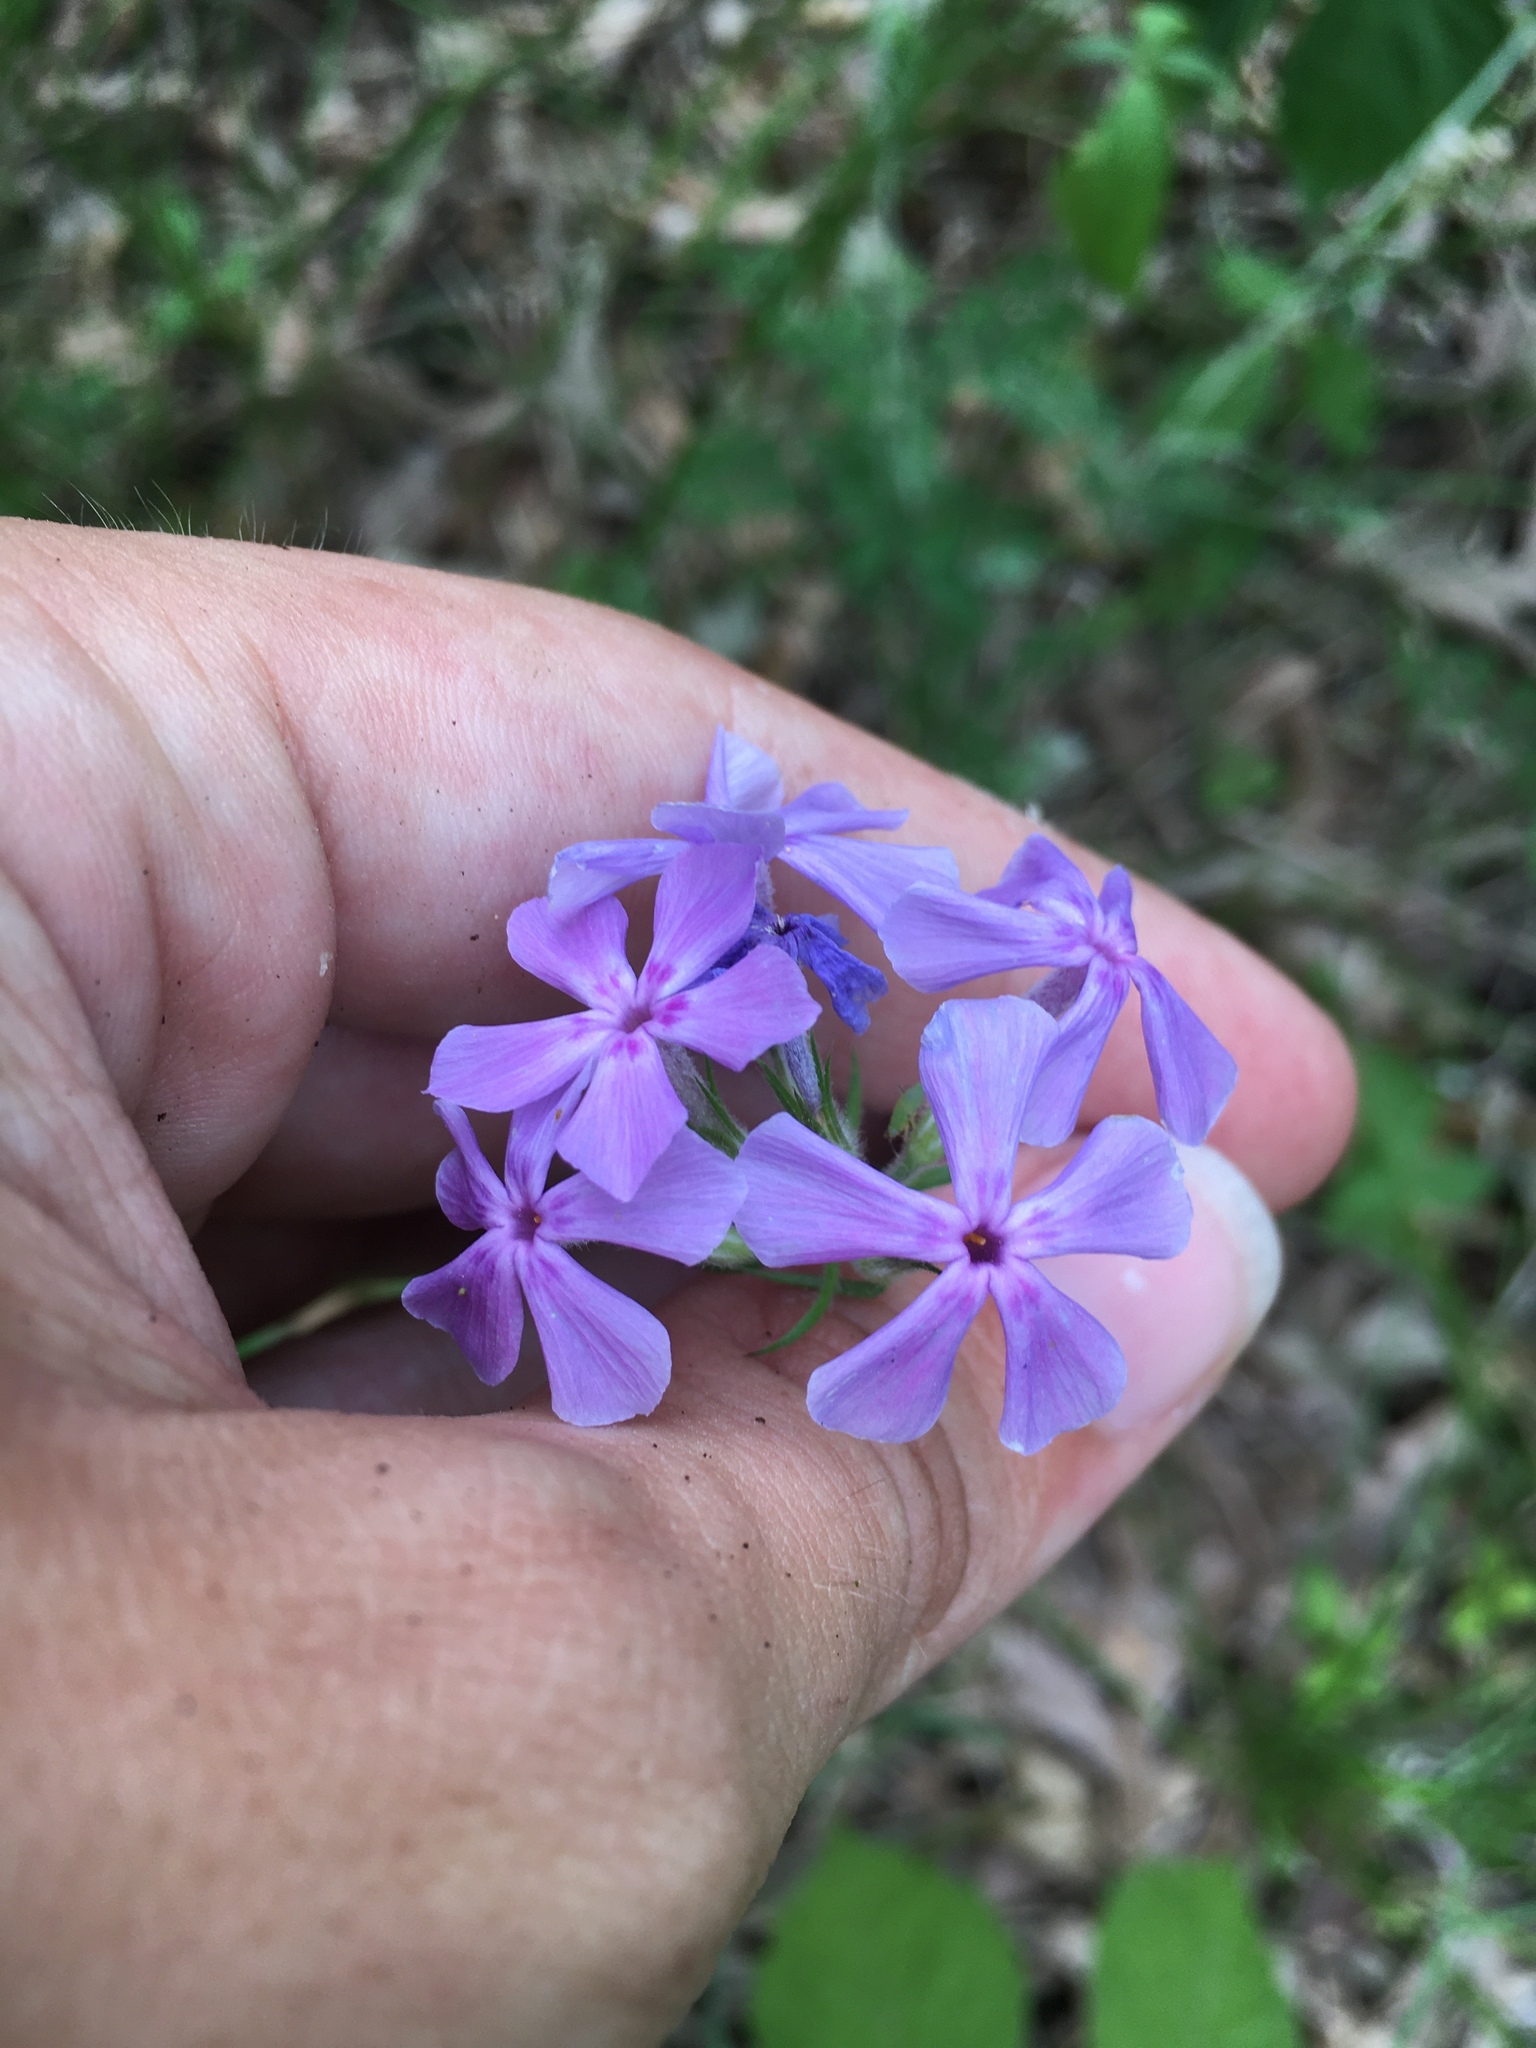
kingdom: Plantae
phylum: Tracheophyta
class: Magnoliopsida
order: Ericales
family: Polemoniaceae
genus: Phlox
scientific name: Phlox pilosa
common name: Prairie phlox
